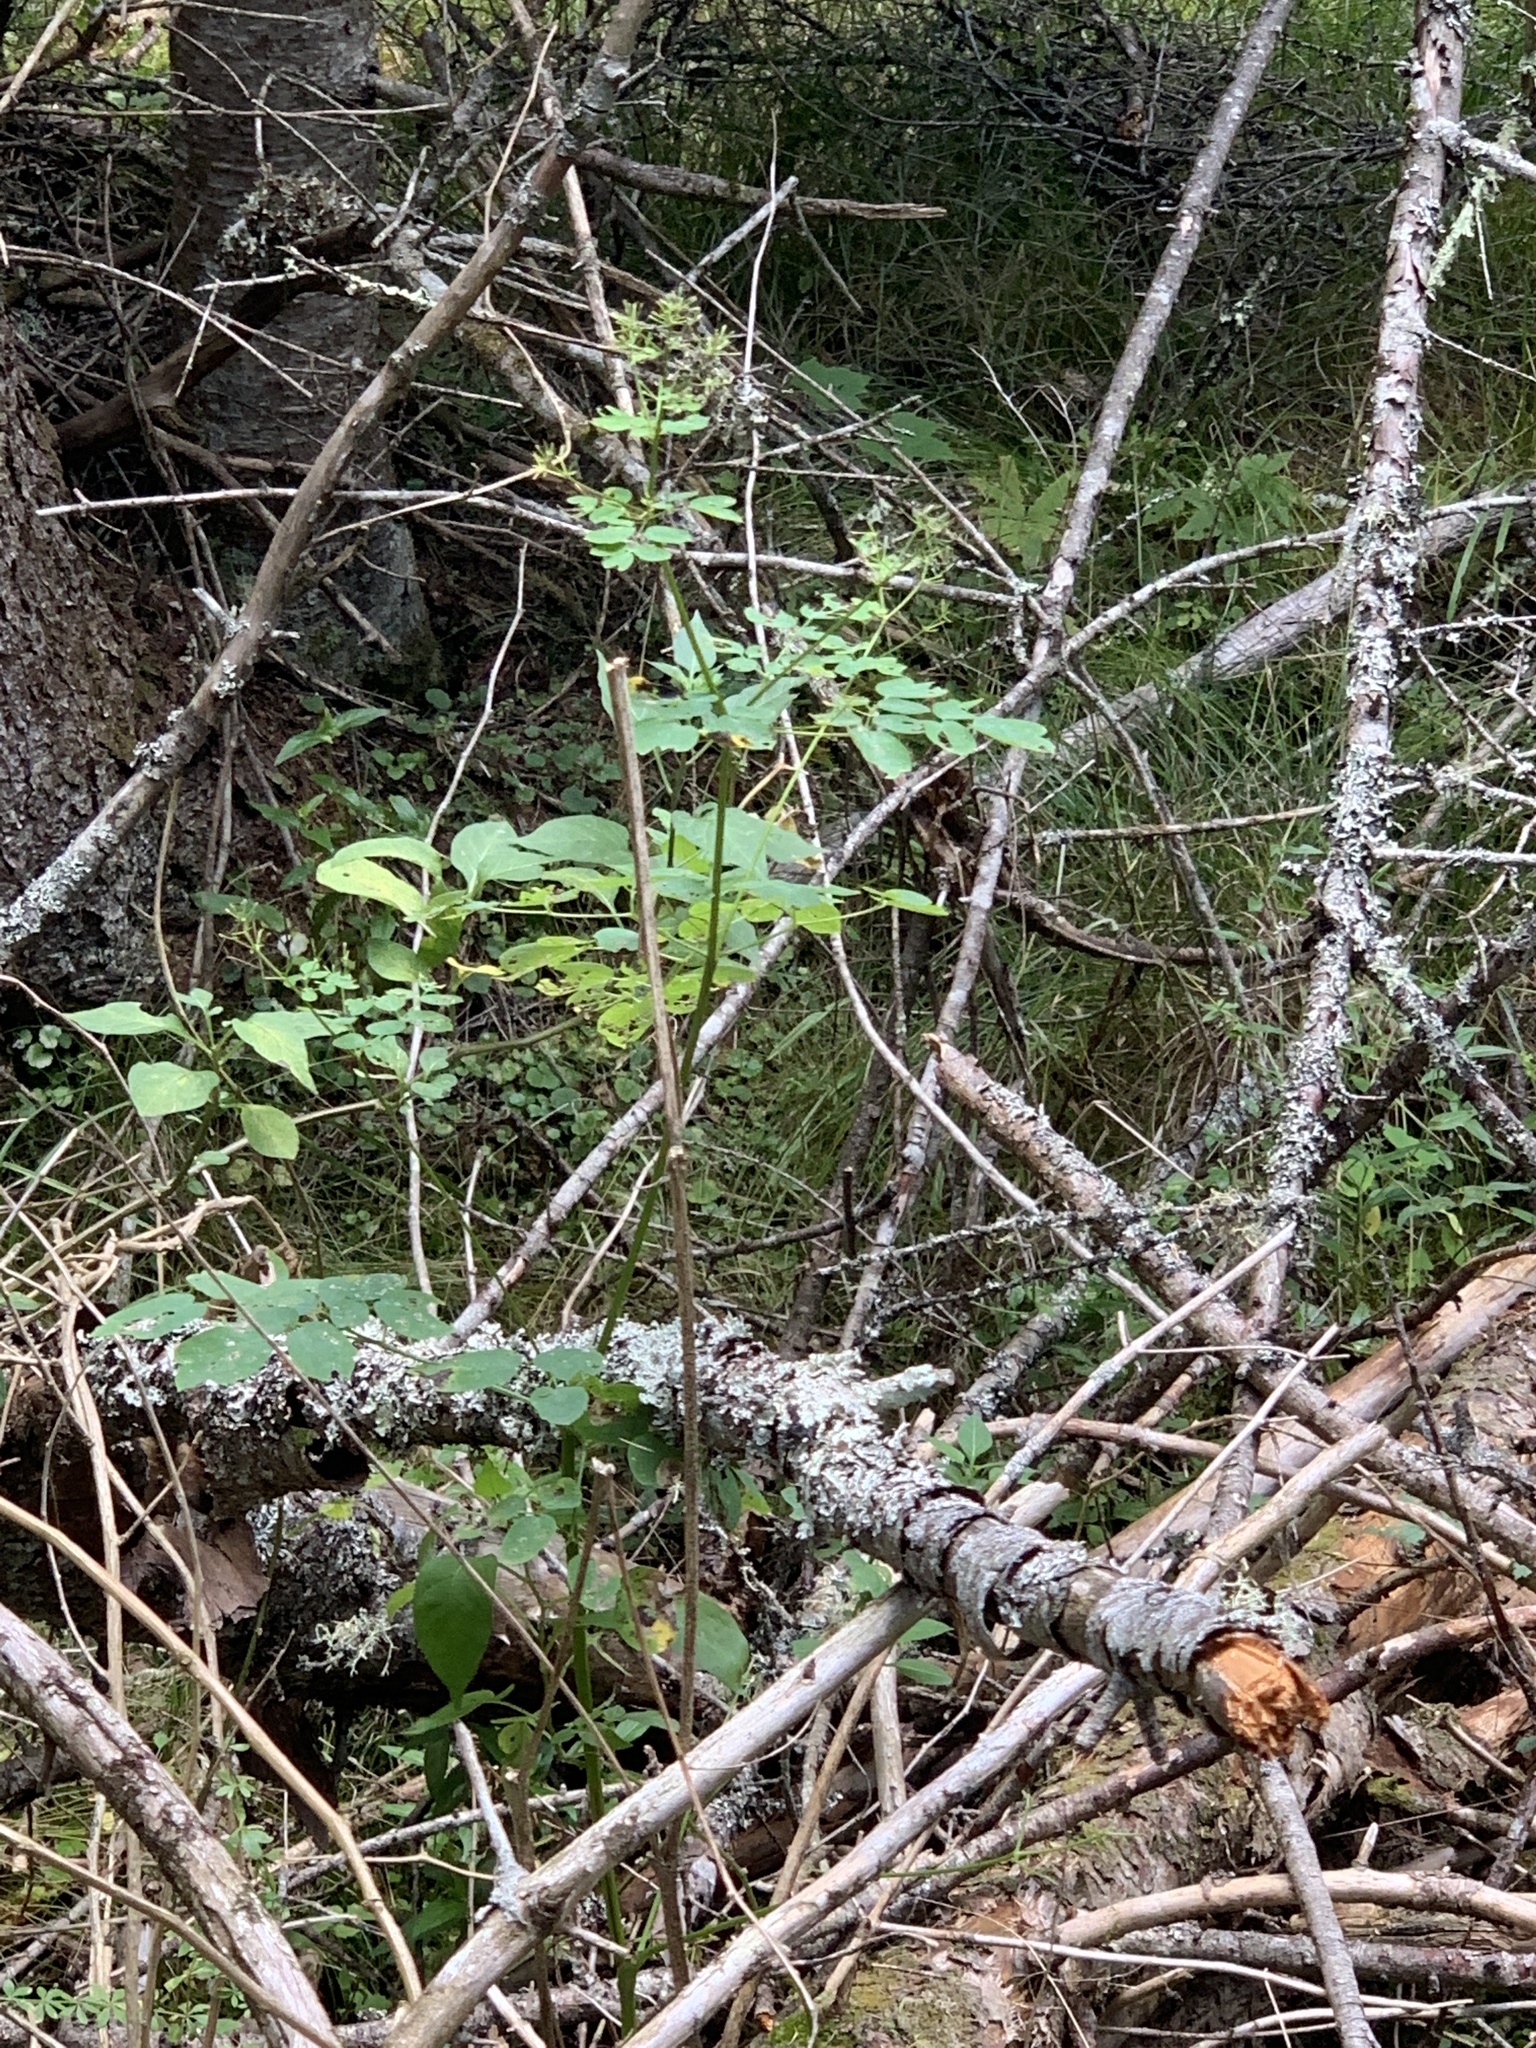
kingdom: Plantae
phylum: Tracheophyta
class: Magnoliopsida
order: Ranunculales
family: Ranunculaceae
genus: Thalictrum
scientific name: Thalictrum pubescens
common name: King-of-the-meadow
